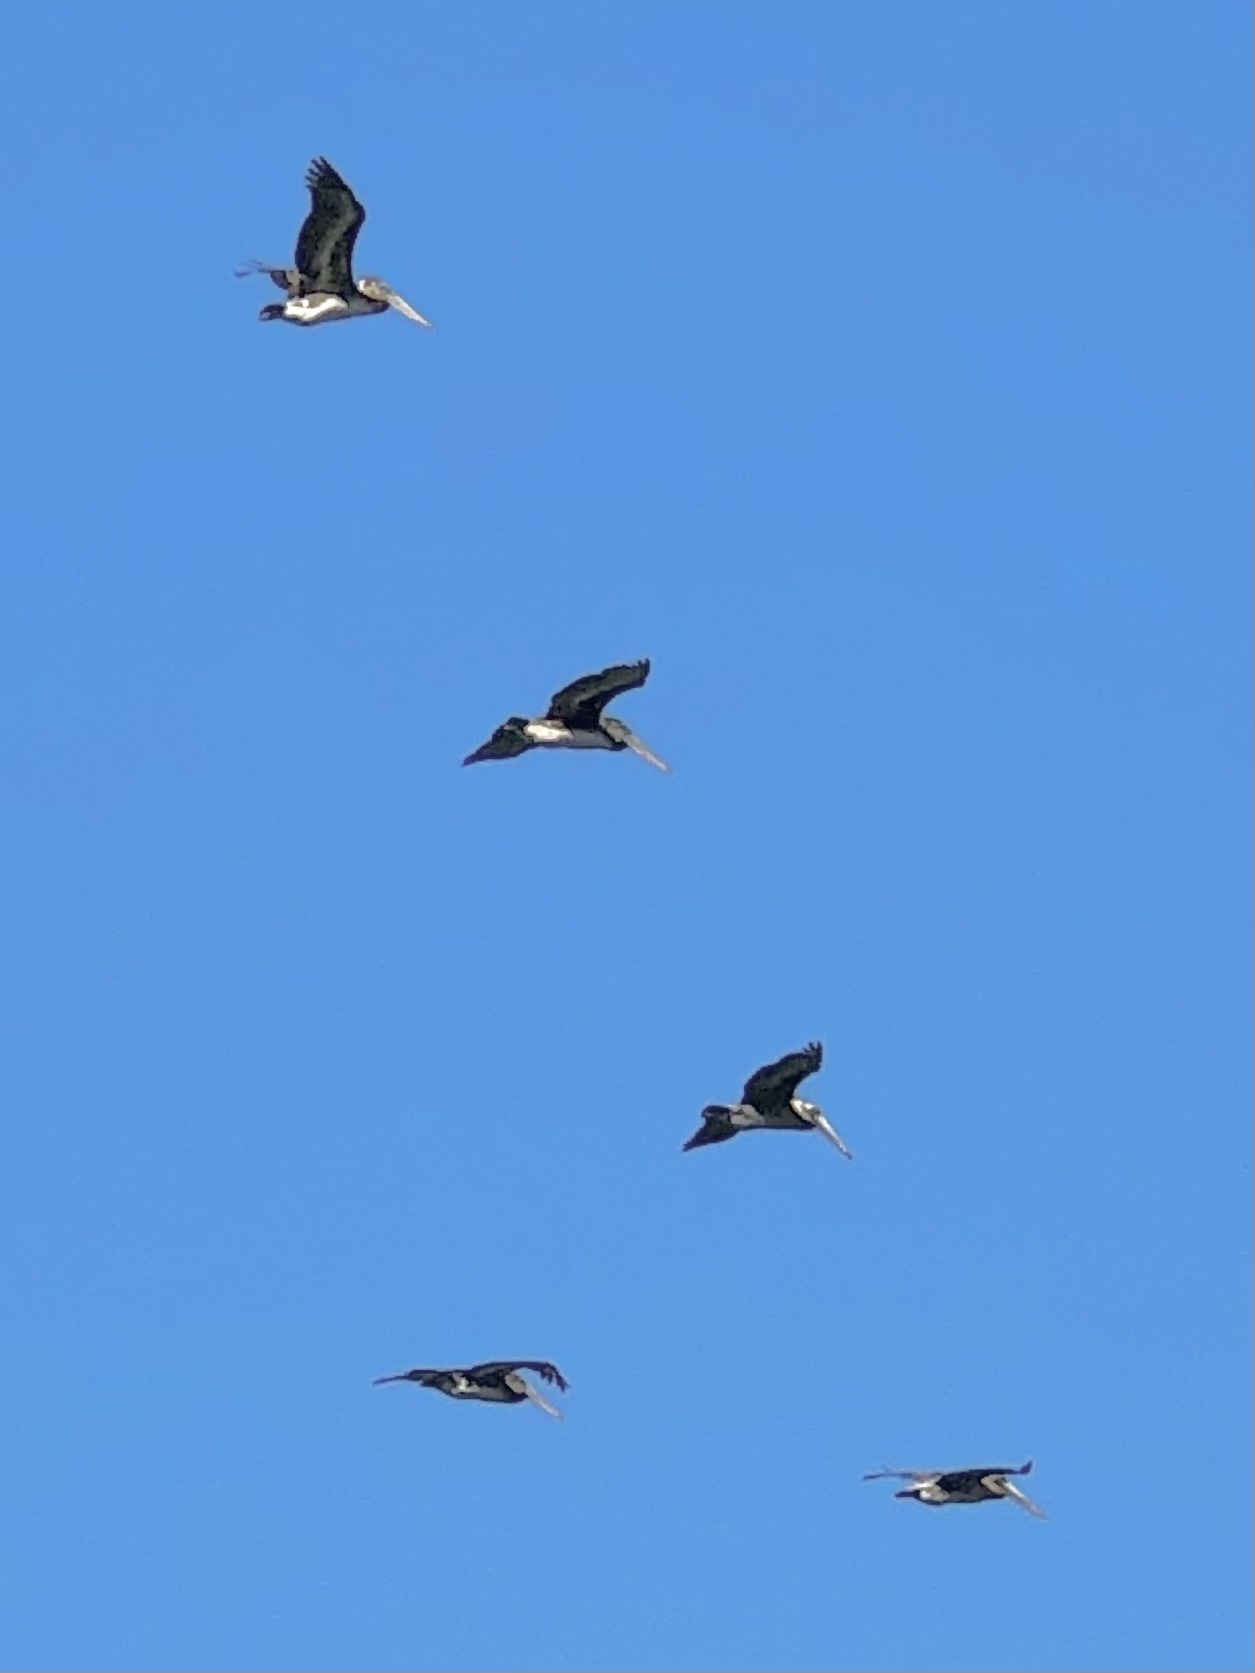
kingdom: Animalia
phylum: Chordata
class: Aves
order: Pelecaniformes
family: Pelecanidae
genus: Pelecanus
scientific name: Pelecanus occidentalis
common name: Brown pelican
